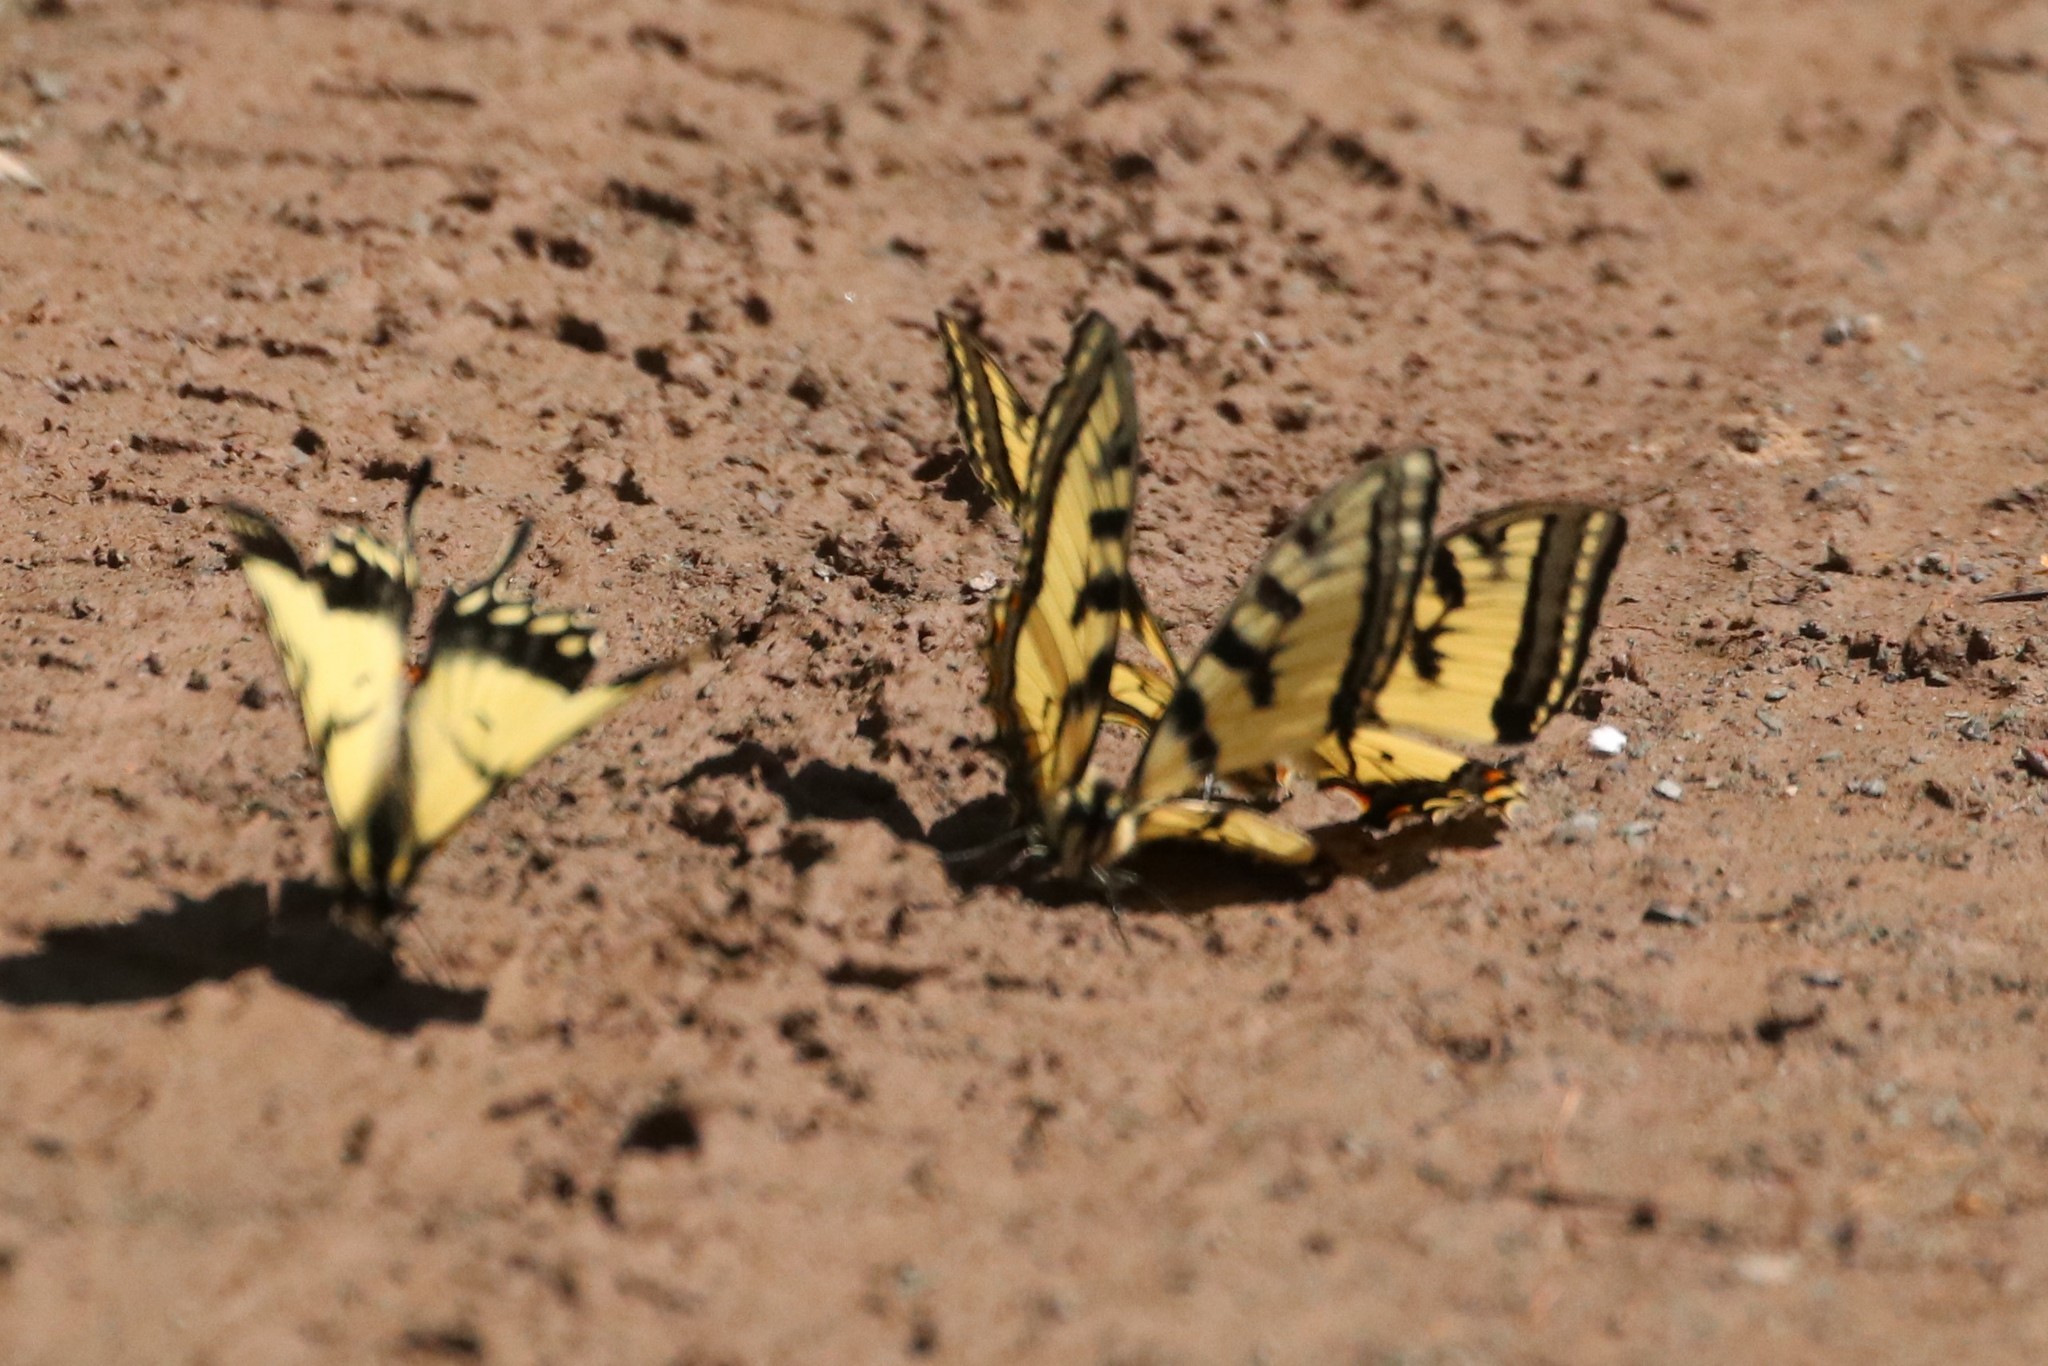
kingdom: Animalia
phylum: Arthropoda
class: Insecta
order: Lepidoptera
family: Papilionidae
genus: Papilio
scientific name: Papilio canadensis
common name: Canadian tiger swallowtail
